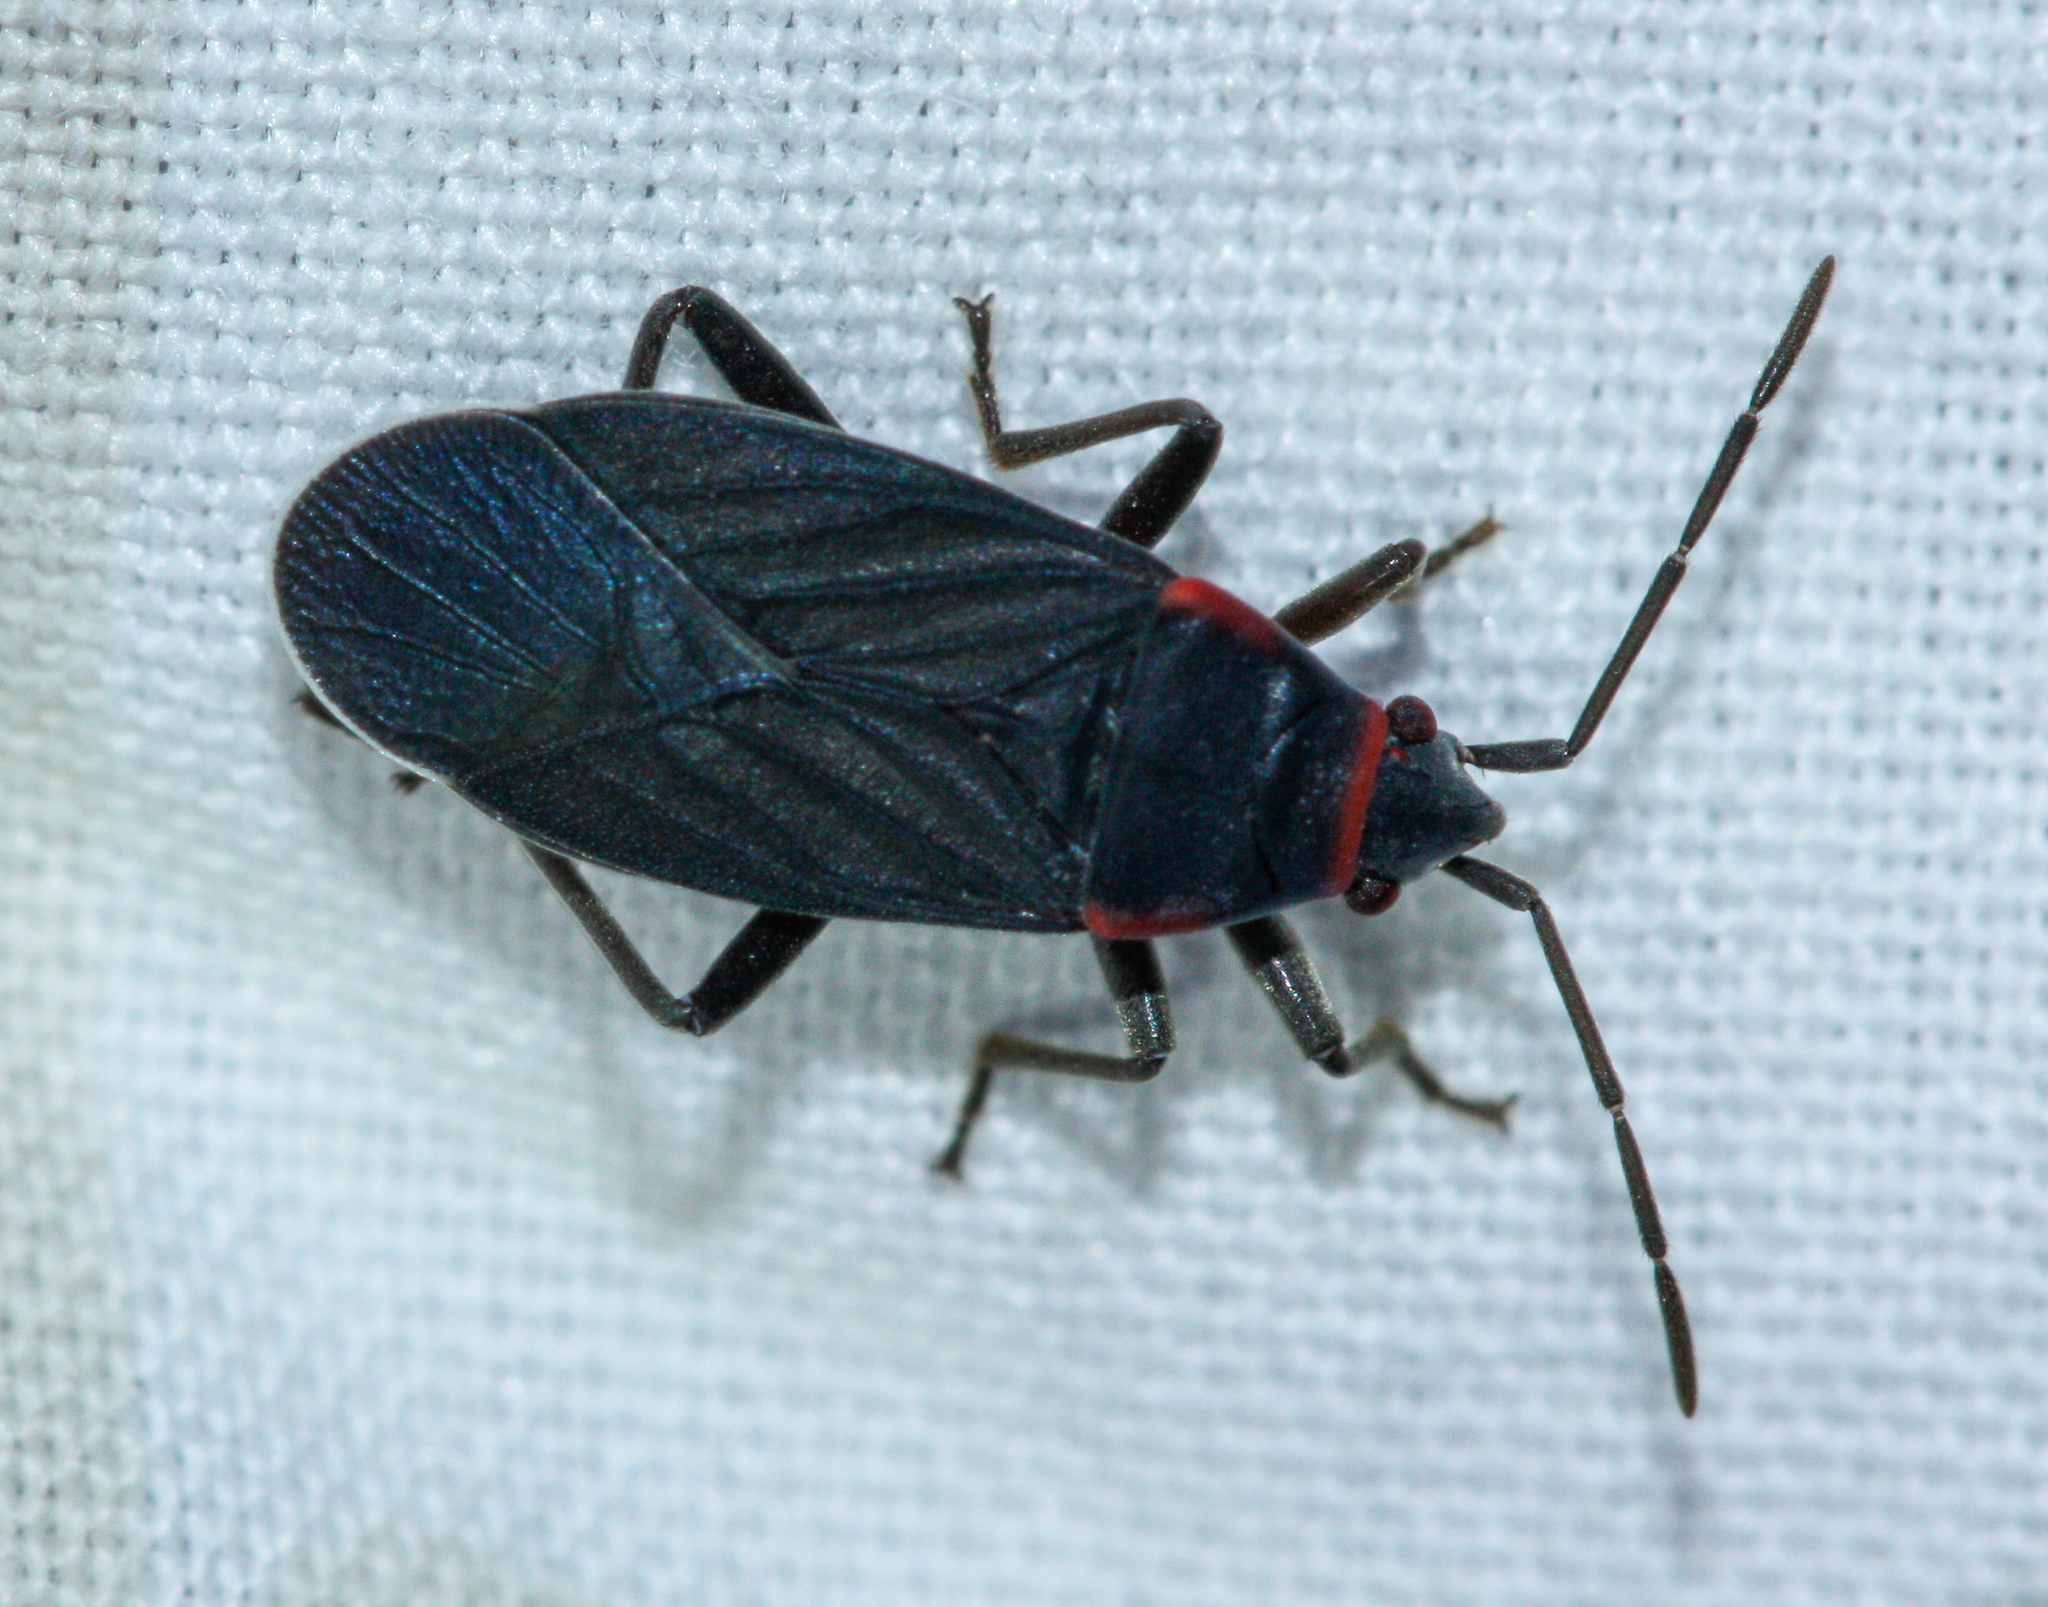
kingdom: Animalia
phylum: Arthropoda
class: Insecta
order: Hemiptera
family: Lygaeidae
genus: Melacoryphus
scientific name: Melacoryphus rubicollis
